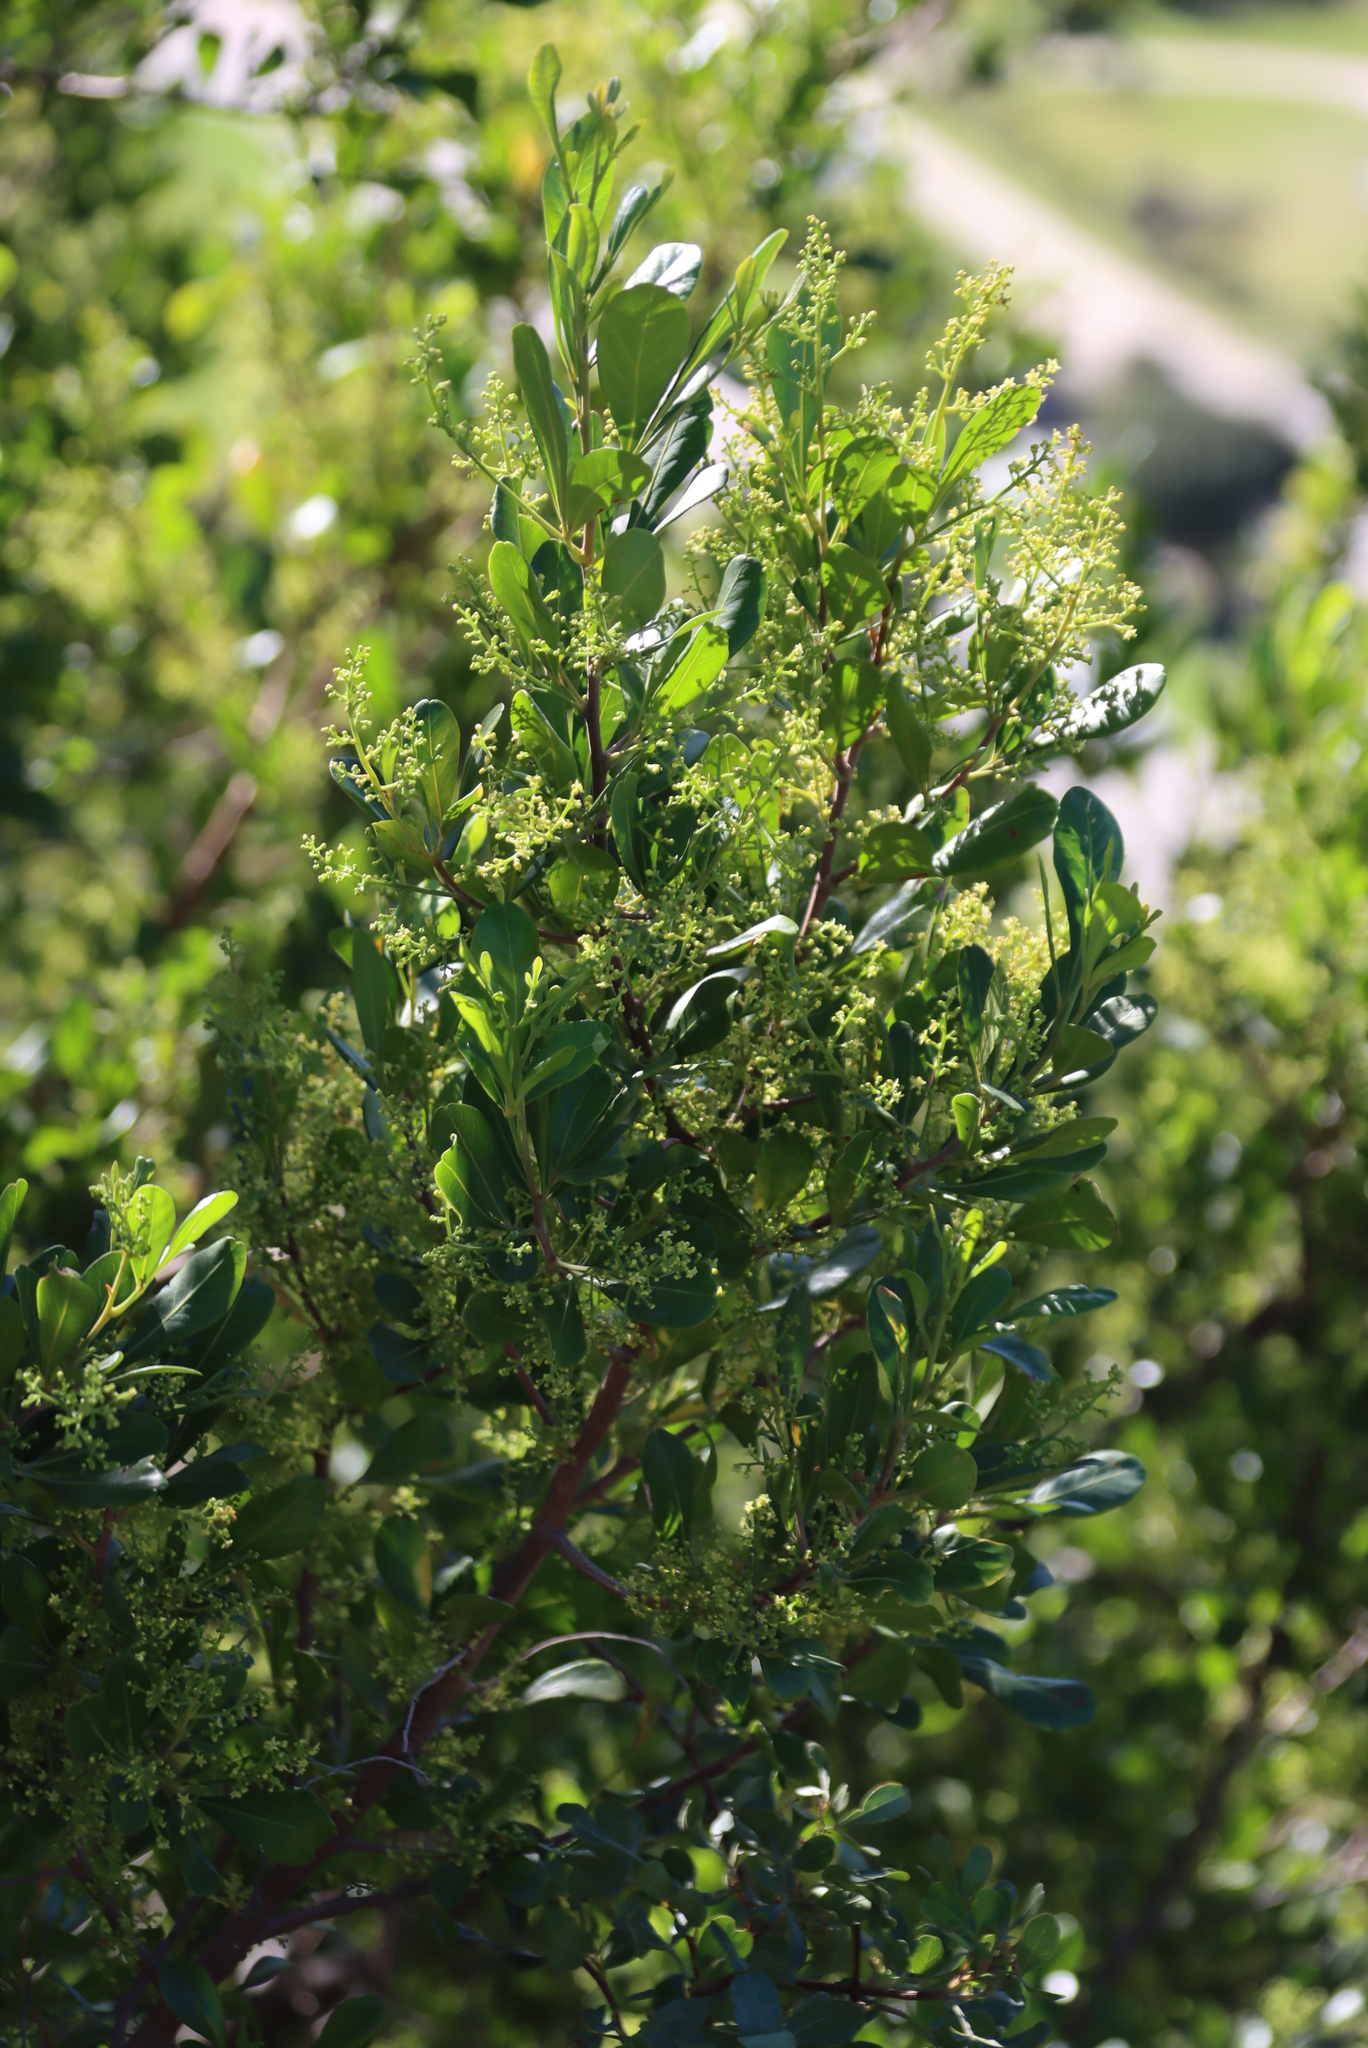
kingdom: Plantae
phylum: Tracheophyta
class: Magnoliopsida
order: Sapindales
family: Anacardiaceae
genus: Searsia
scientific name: Searsia lucida
